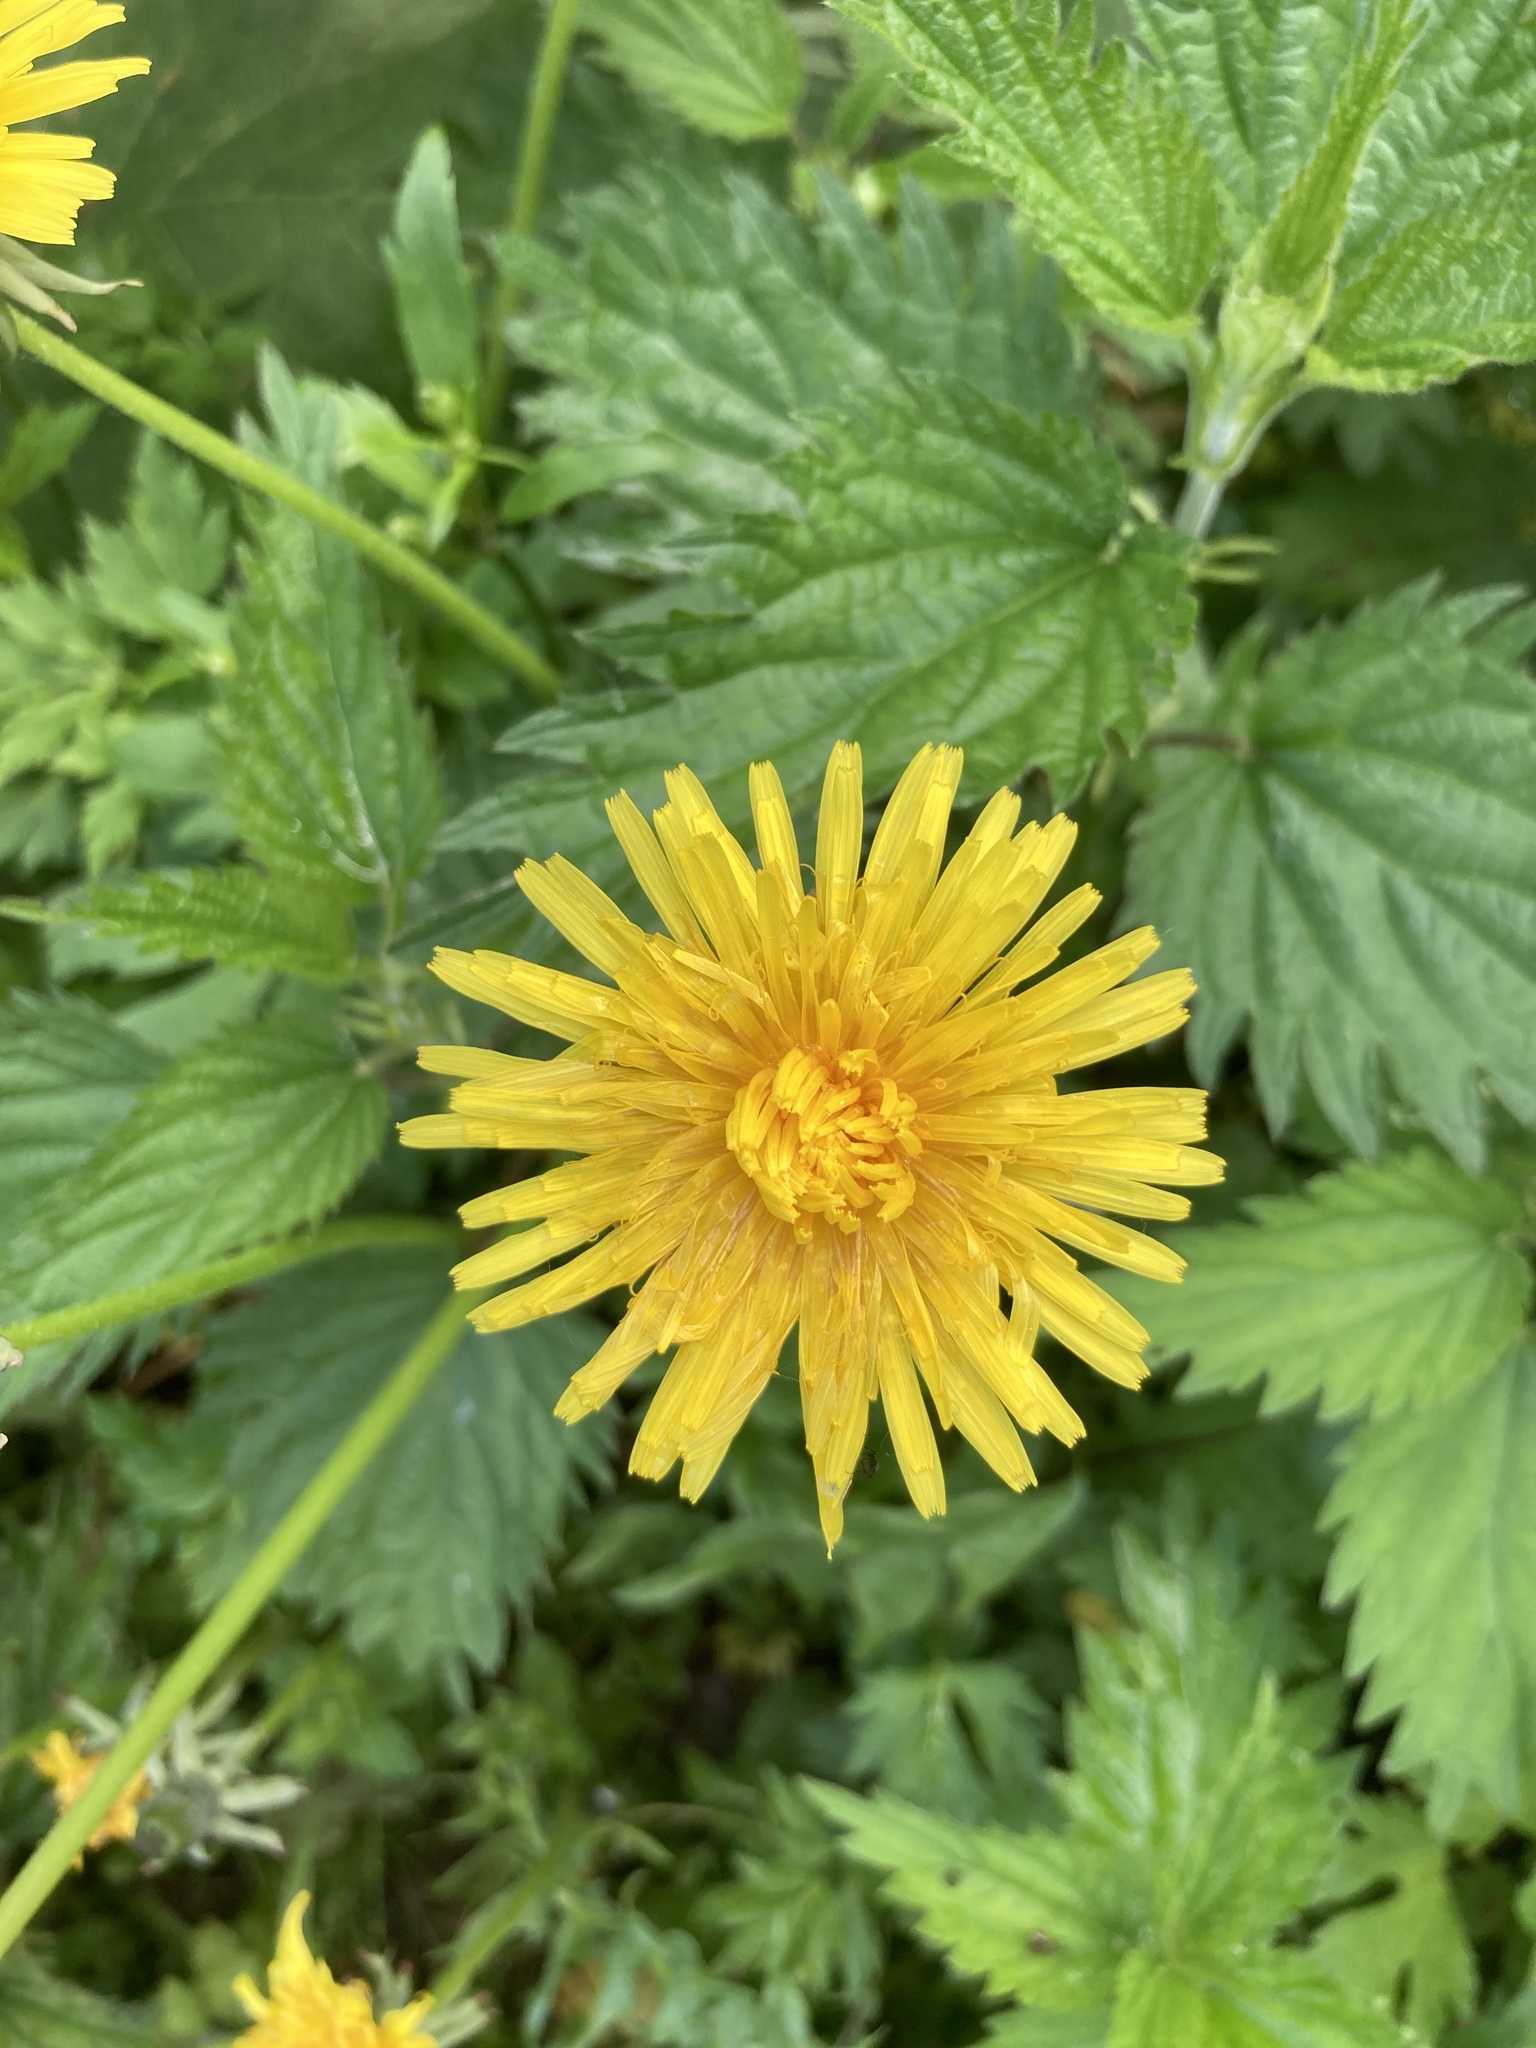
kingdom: Plantae
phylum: Tracheophyta
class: Magnoliopsida
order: Asterales
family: Asteraceae
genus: Taraxacum
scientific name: Taraxacum officinale
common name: Common dandelion
